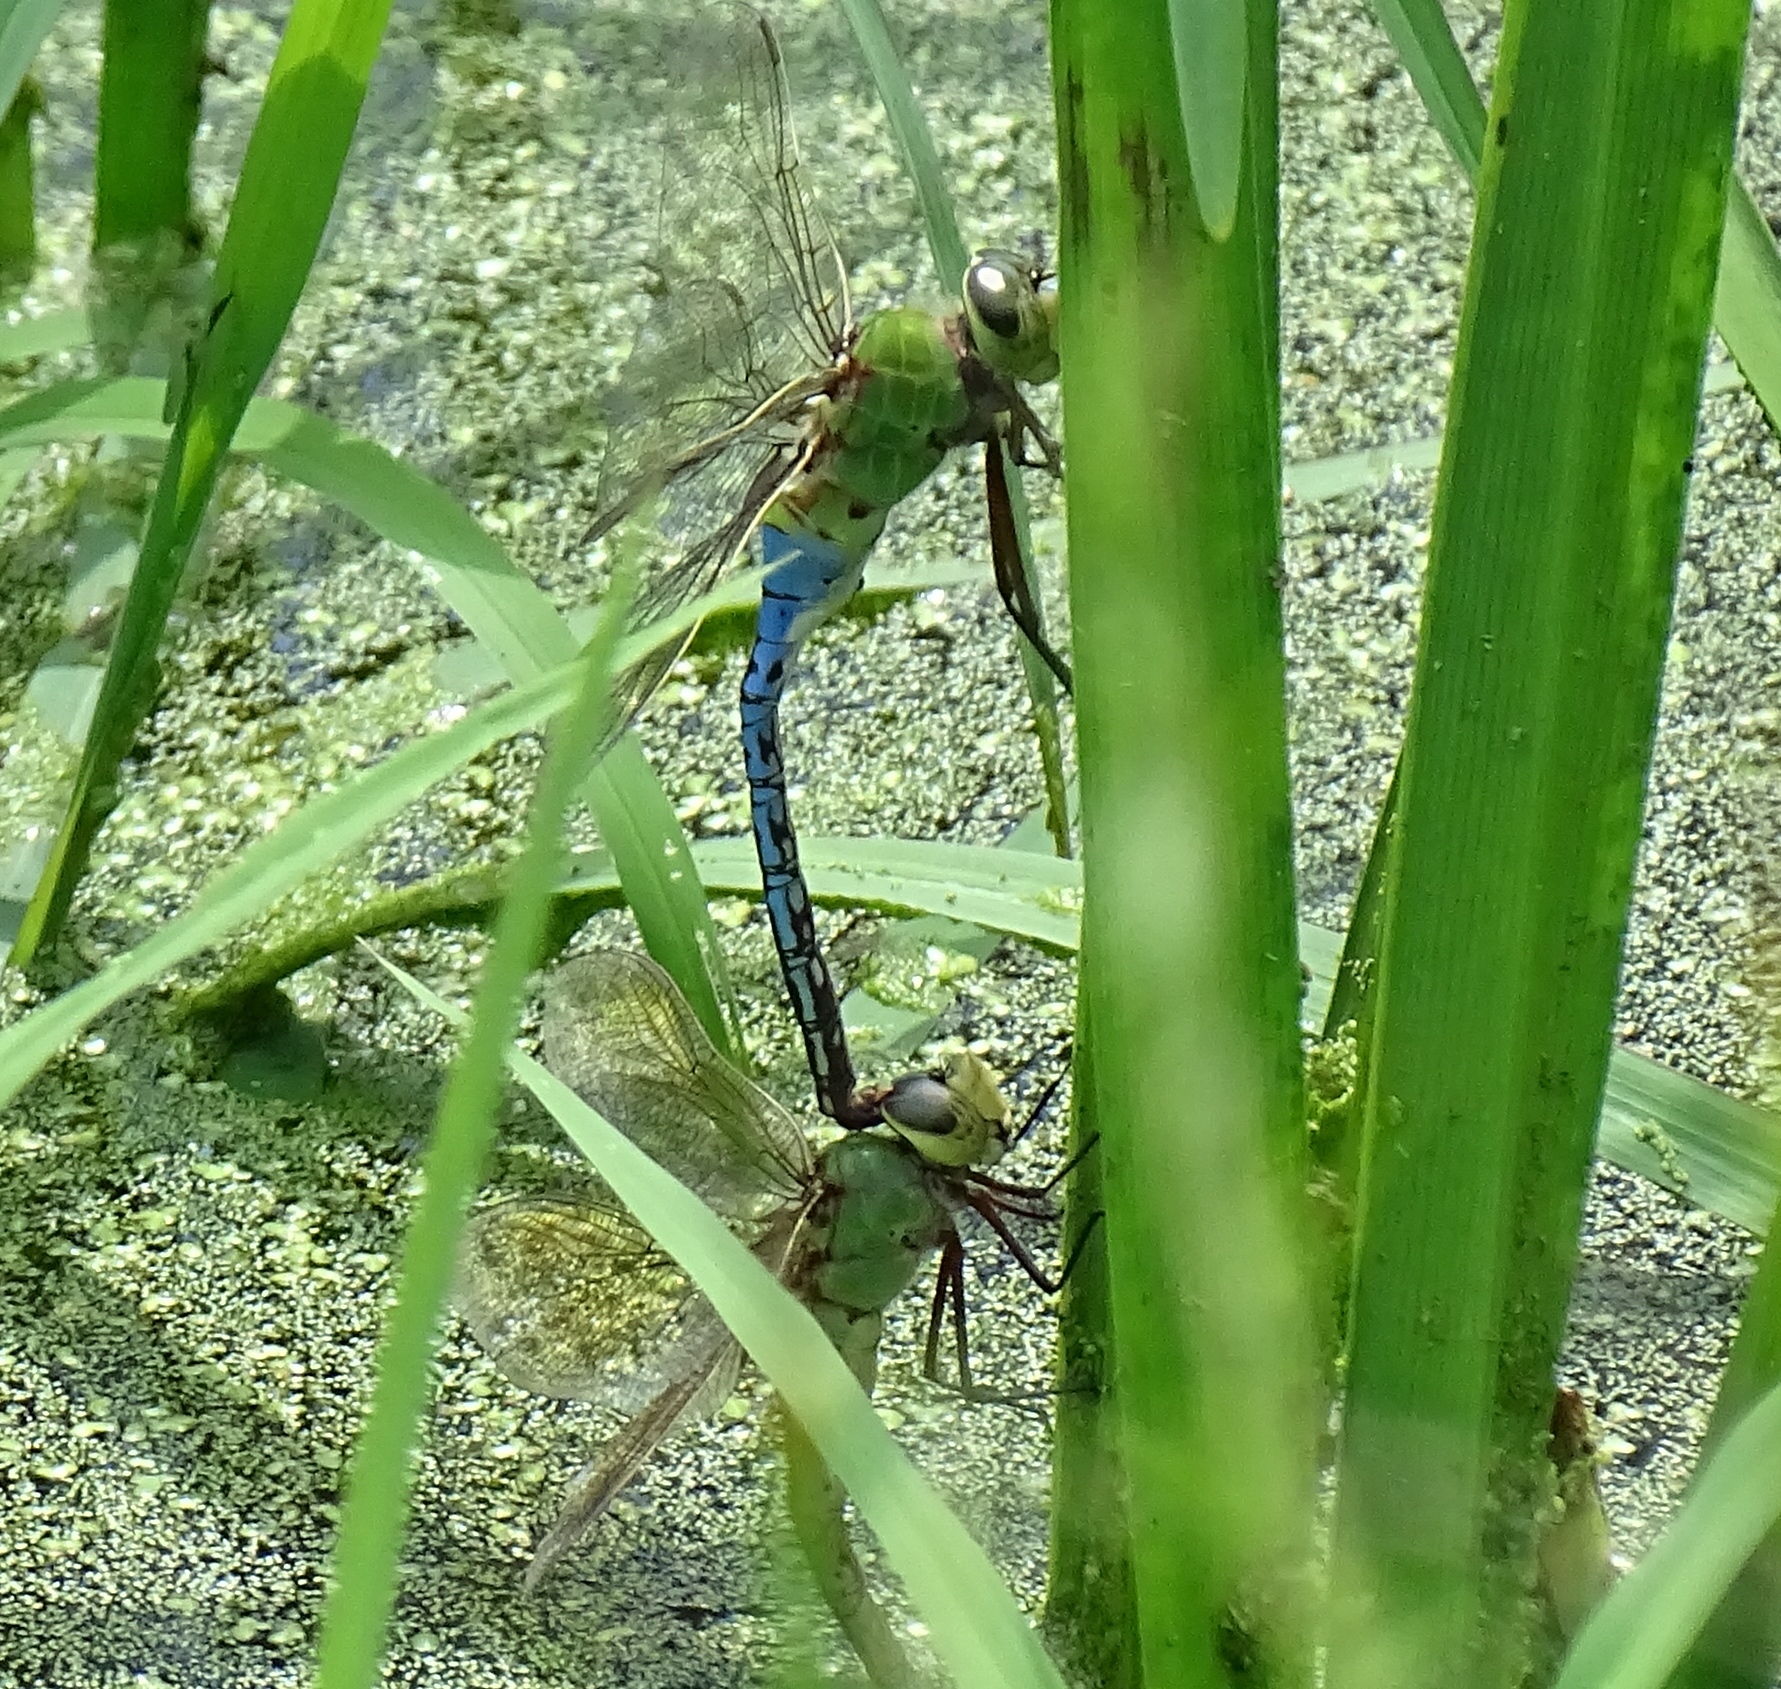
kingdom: Animalia
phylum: Arthropoda
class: Insecta
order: Odonata
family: Aeshnidae
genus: Anax
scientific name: Anax junius
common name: Common green darner
